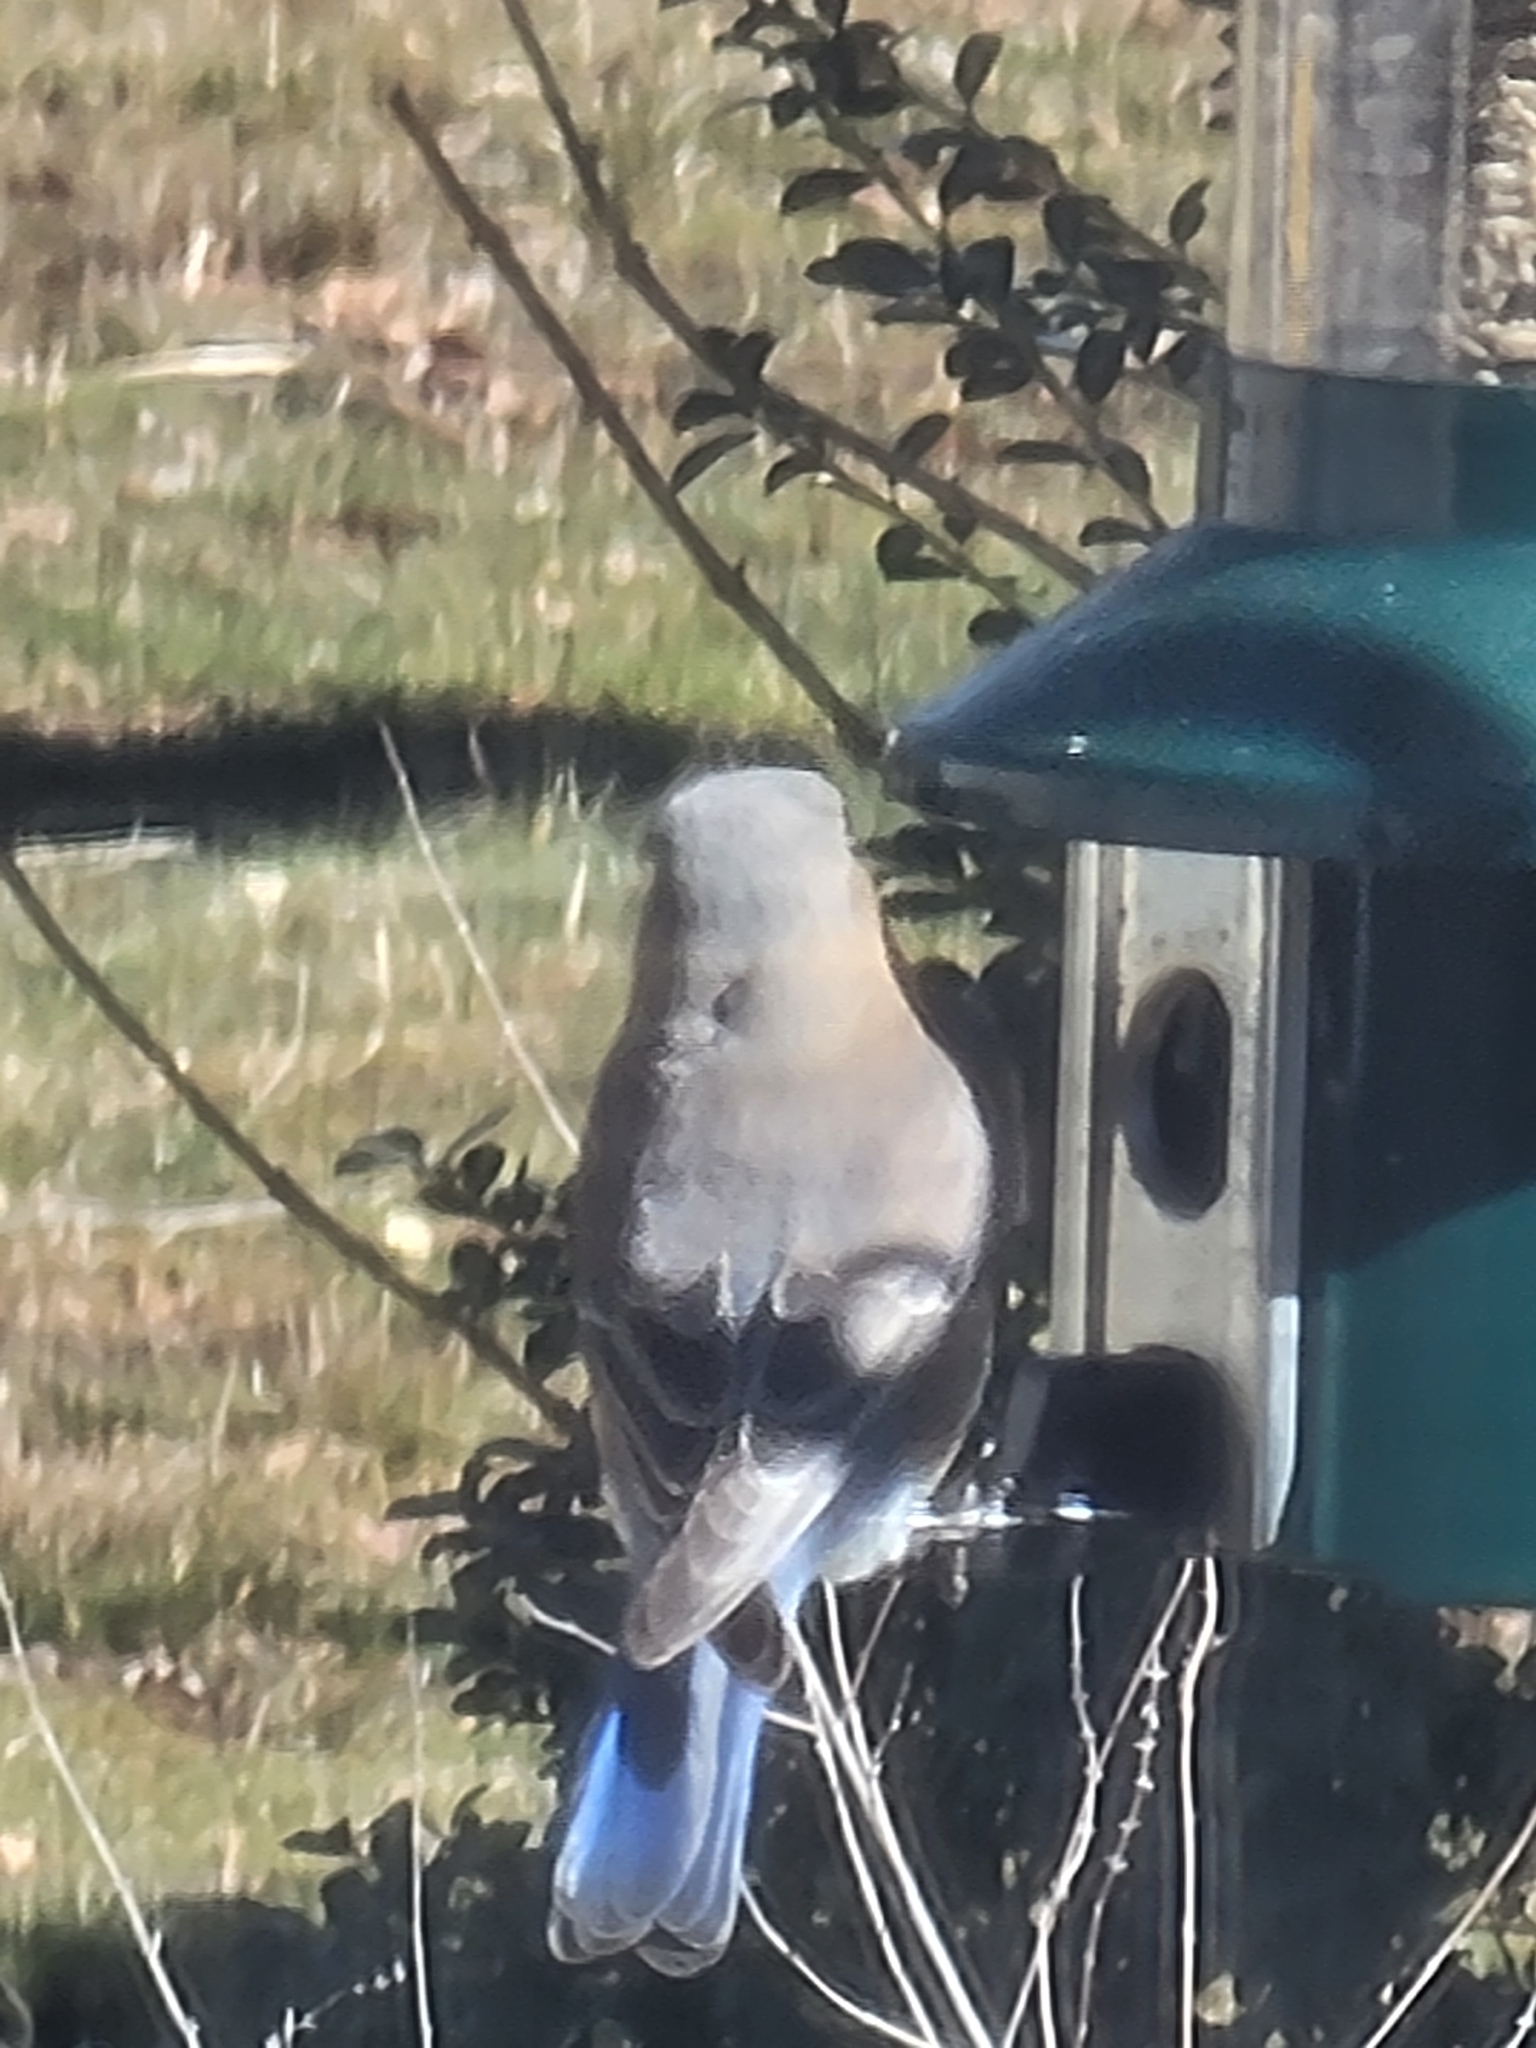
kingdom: Animalia
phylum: Chordata
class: Aves
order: Passeriformes
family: Turdidae
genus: Sialia
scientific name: Sialia sialis
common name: Eastern bluebird
